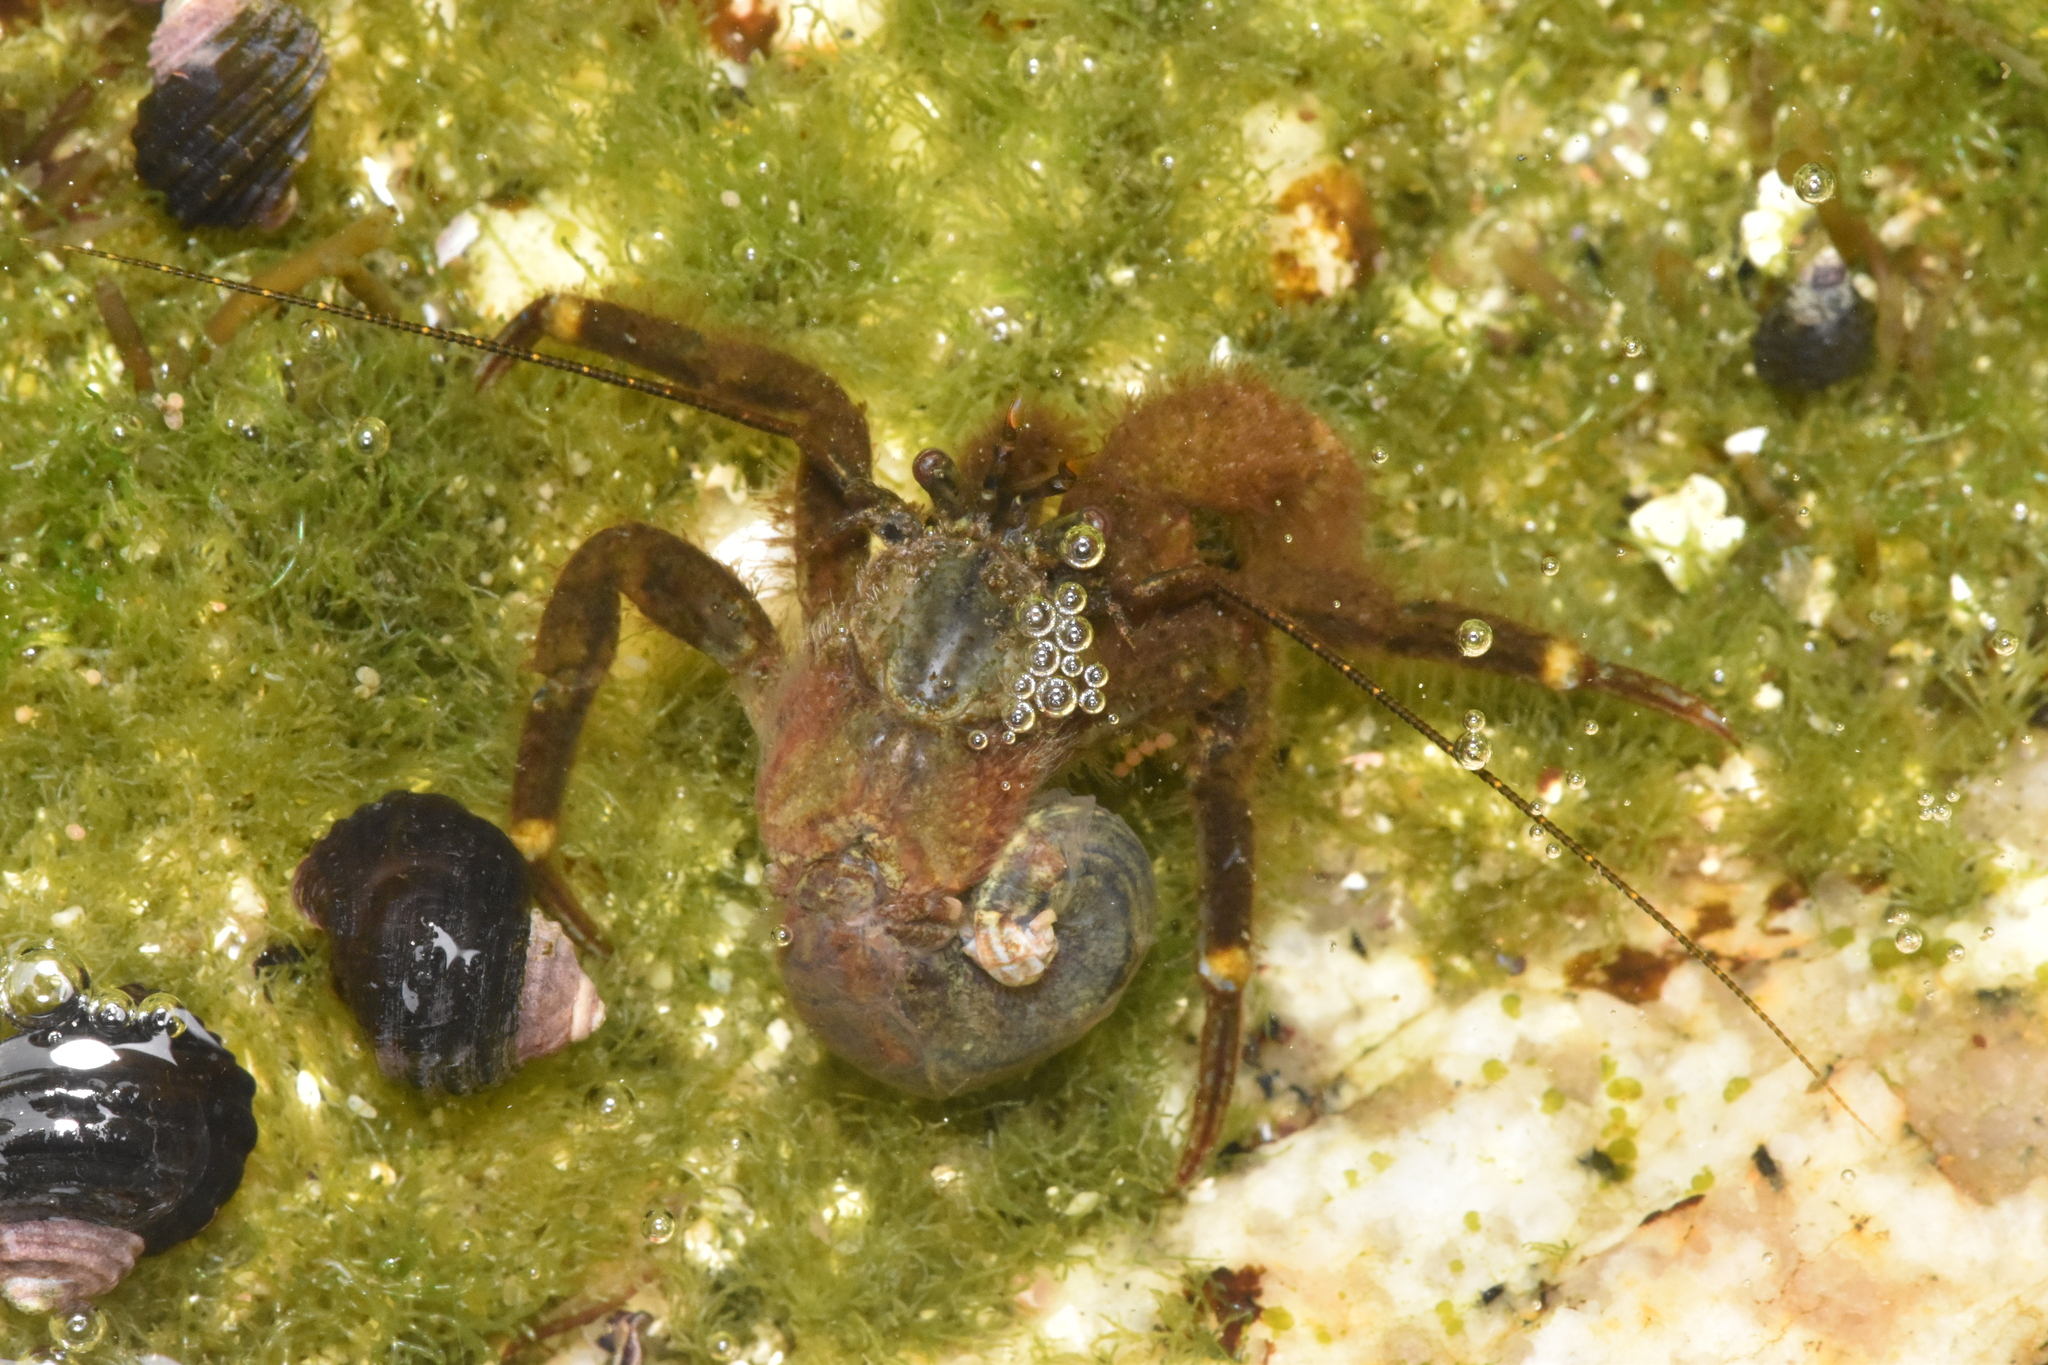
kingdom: Animalia
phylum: Arthropoda
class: Malacostraca
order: Decapoda
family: Paguridae
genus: Pagurus
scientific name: Pagurus hirsutiusculus
